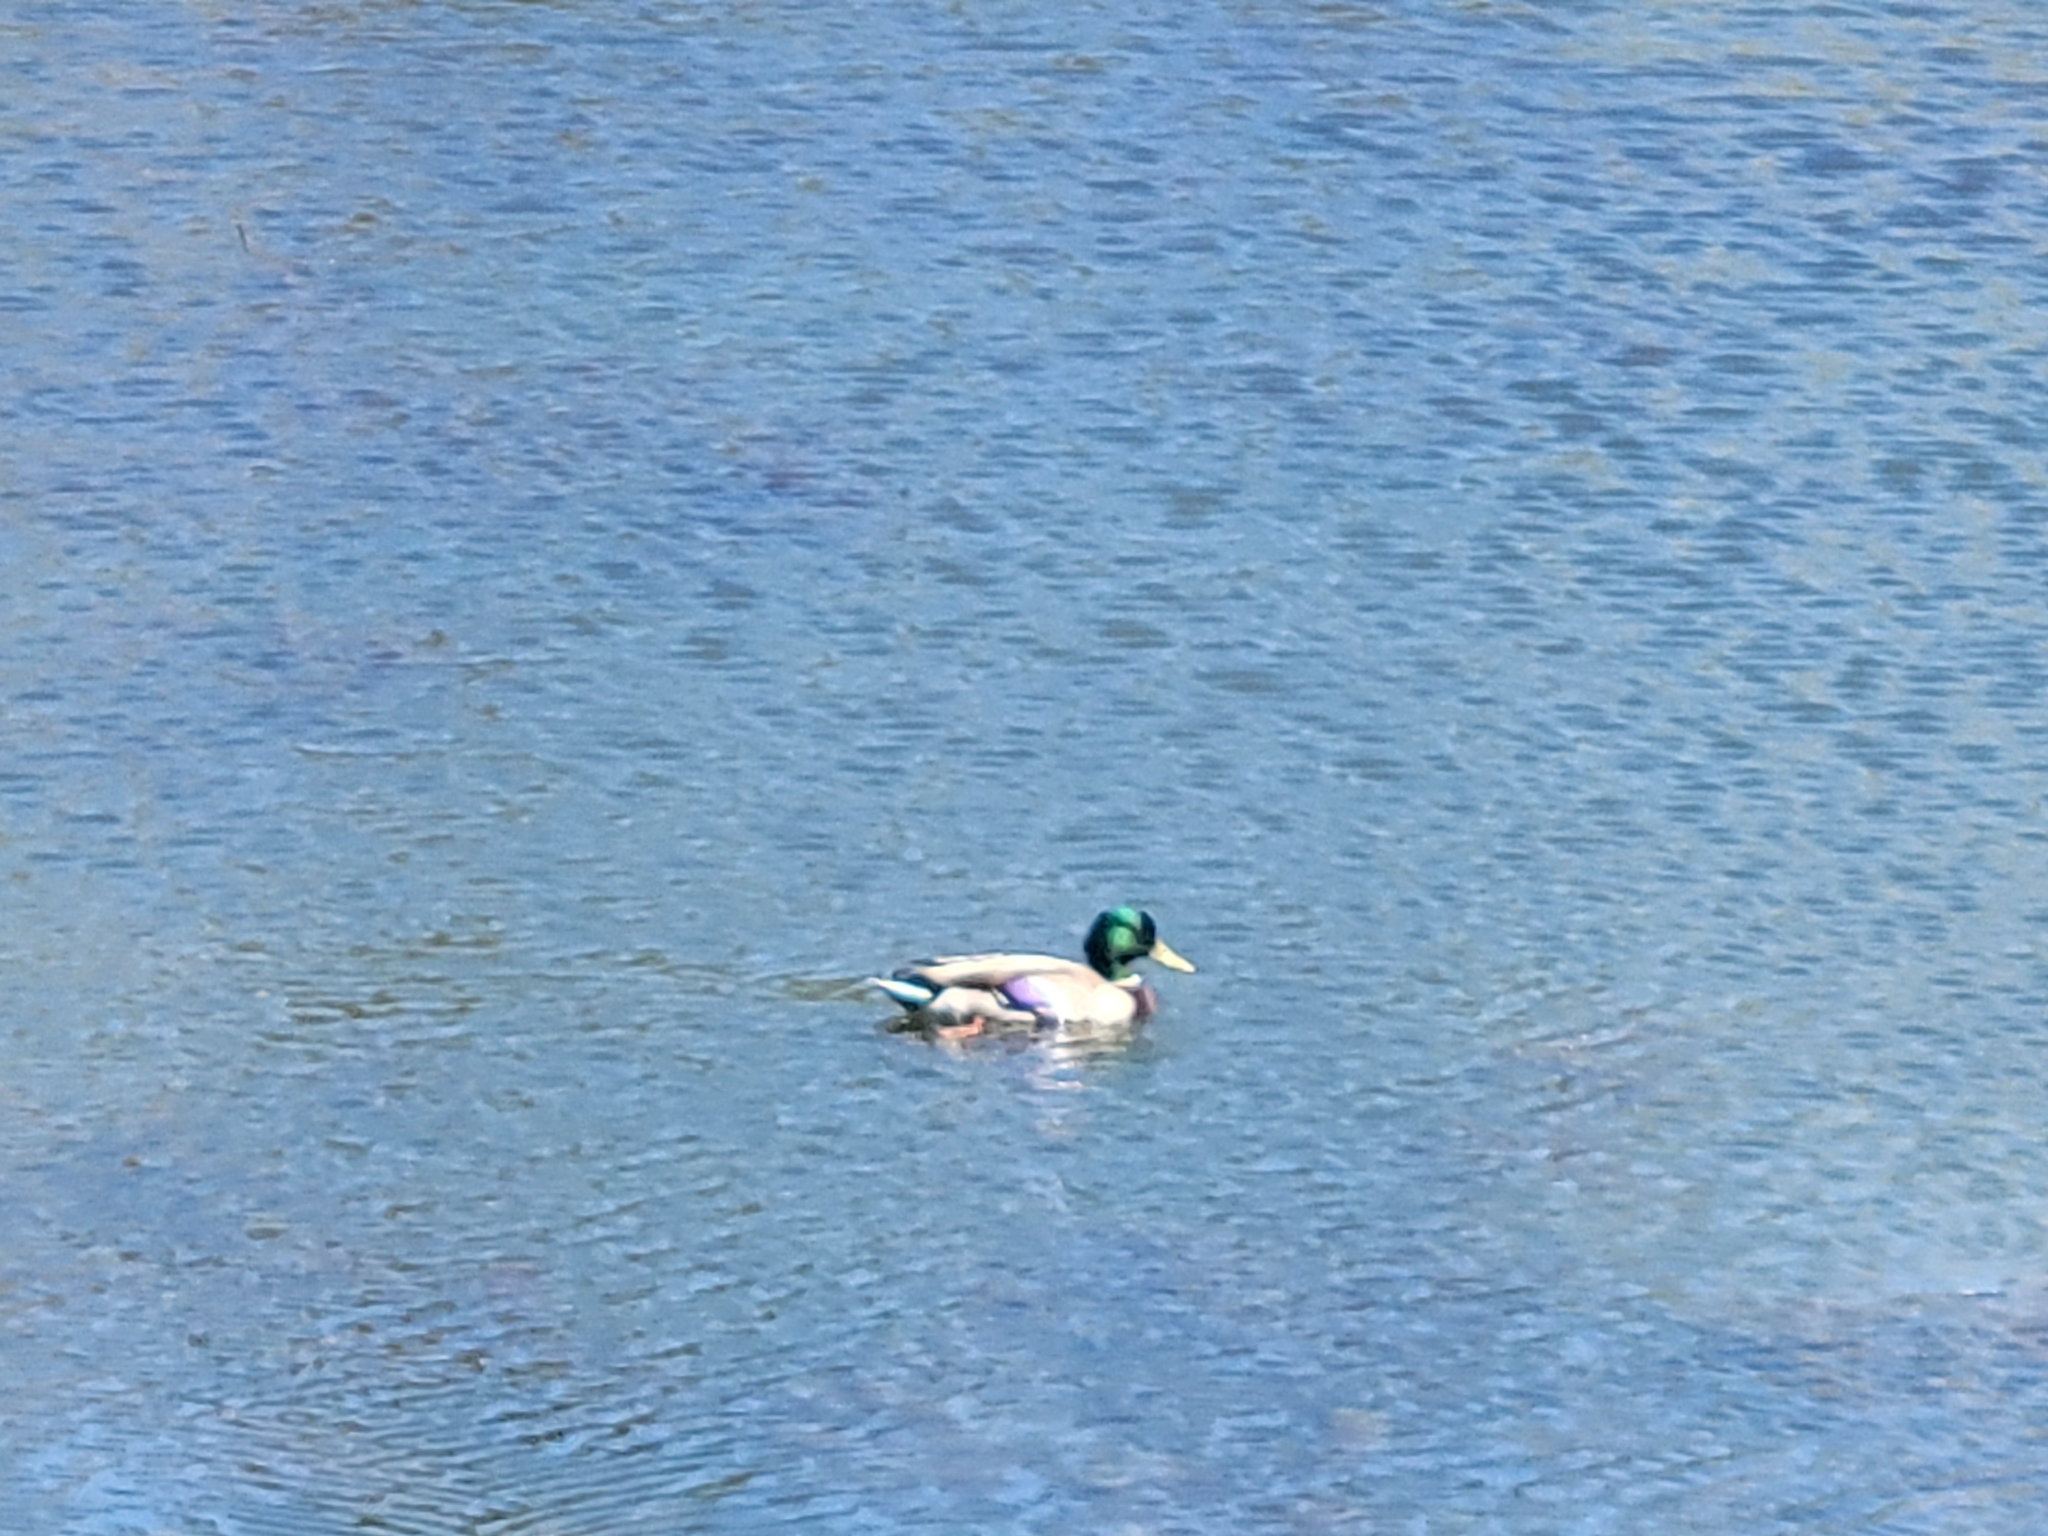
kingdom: Animalia
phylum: Chordata
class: Aves
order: Anseriformes
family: Anatidae
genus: Anas
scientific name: Anas platyrhynchos
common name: Mallard
